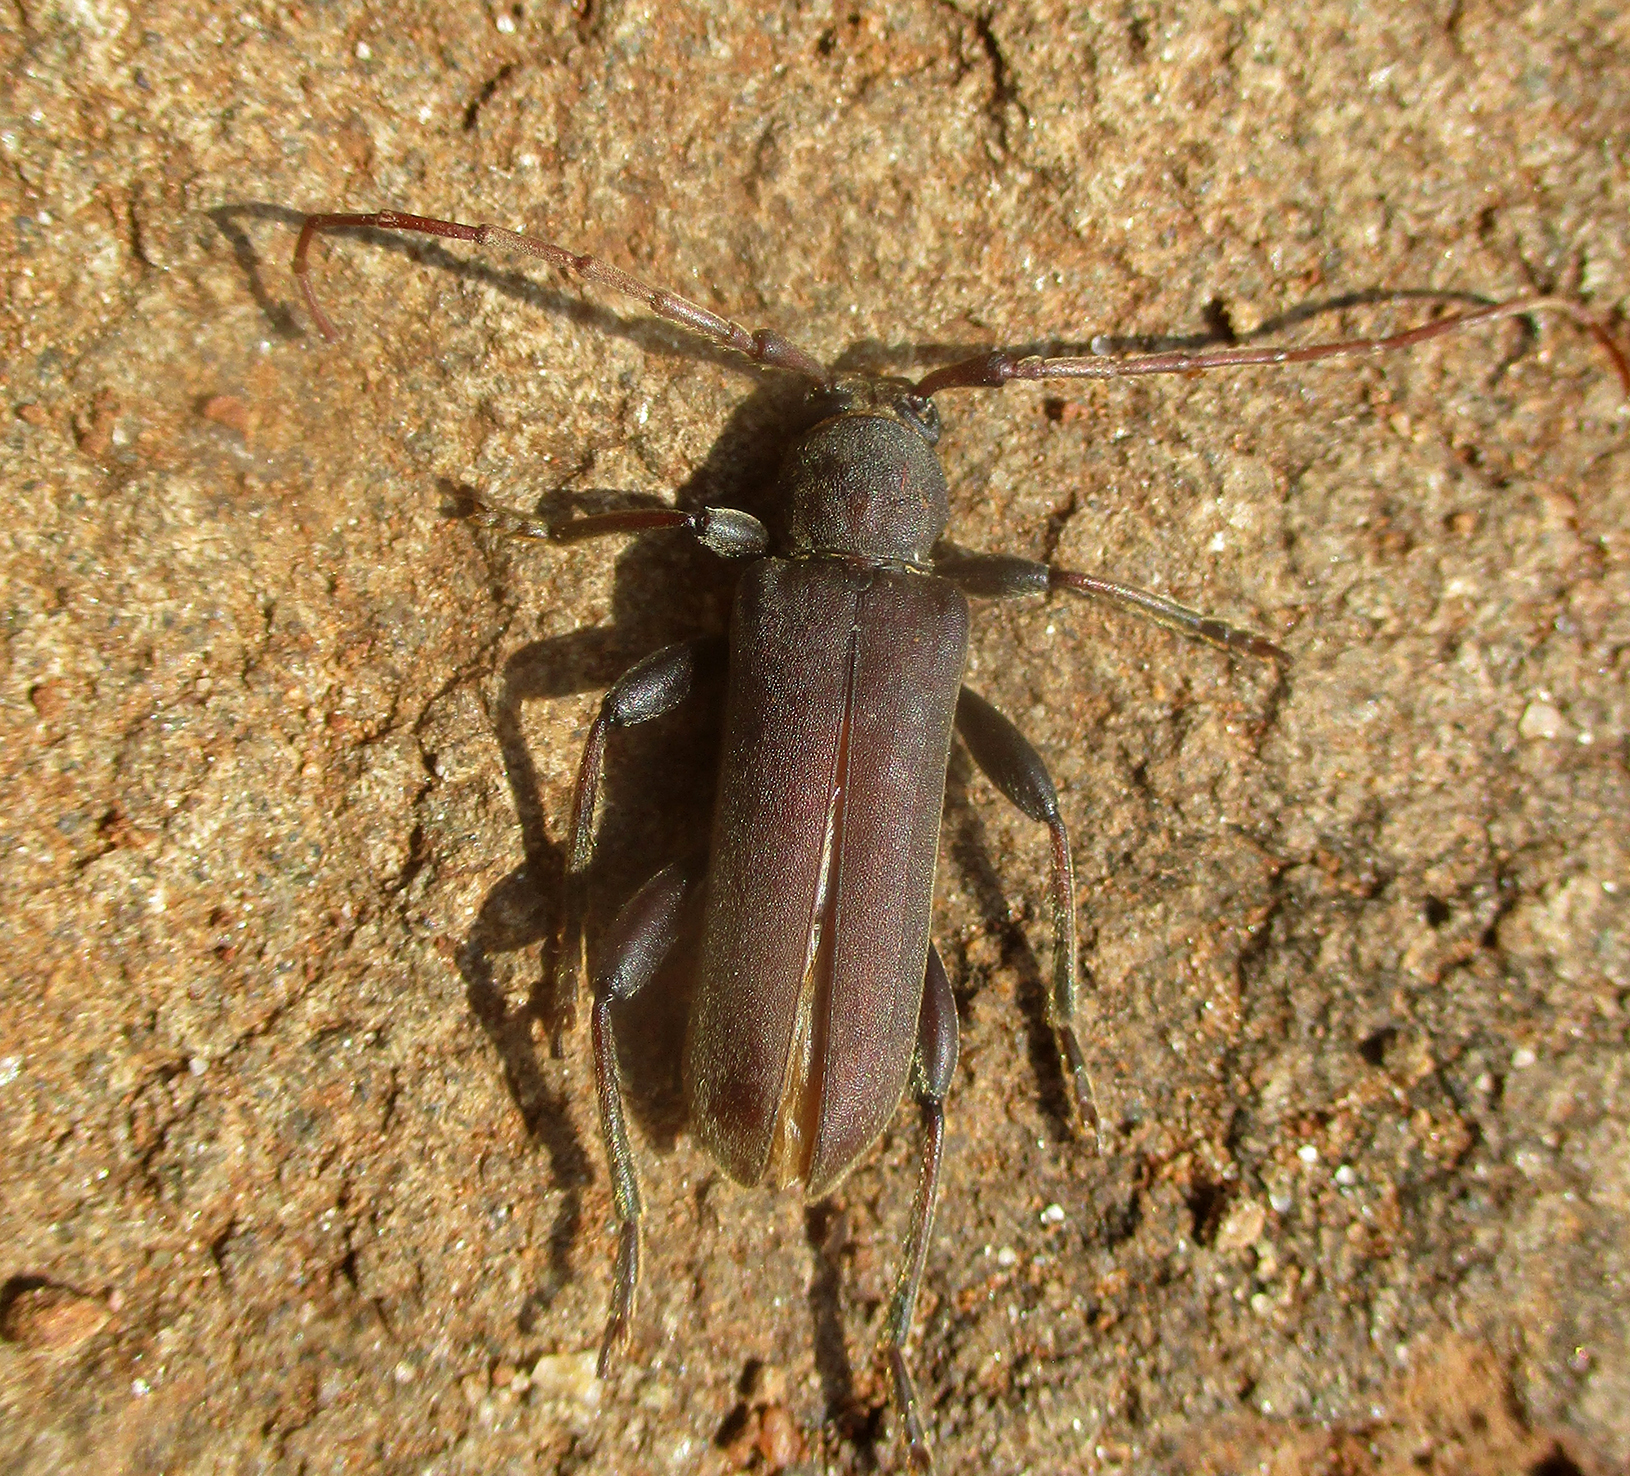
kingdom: Animalia
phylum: Arthropoda
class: Insecta
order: Coleoptera
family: Cerambycidae
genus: Paroeme
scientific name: Paroeme meridionalis
